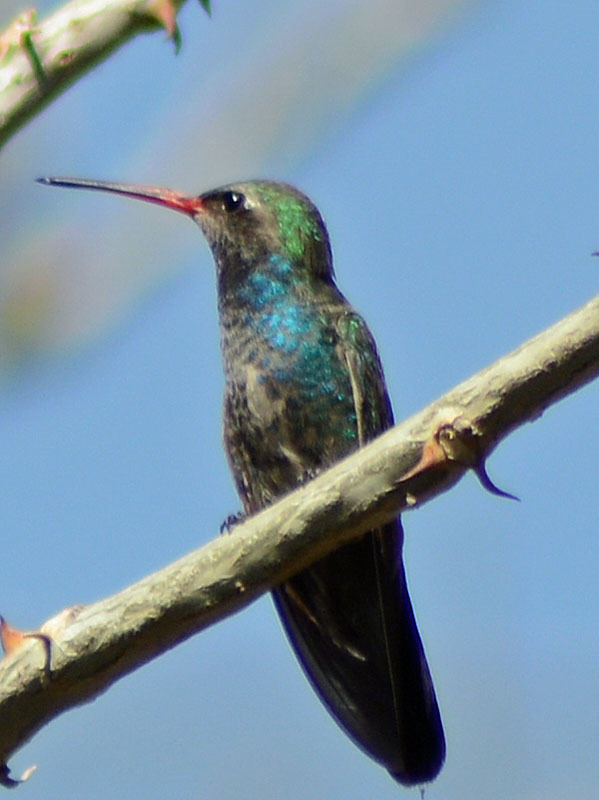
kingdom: Animalia
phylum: Chordata
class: Aves
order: Apodiformes
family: Trochilidae
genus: Cynanthus
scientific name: Cynanthus latirostris
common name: Broad-billed hummingbird
